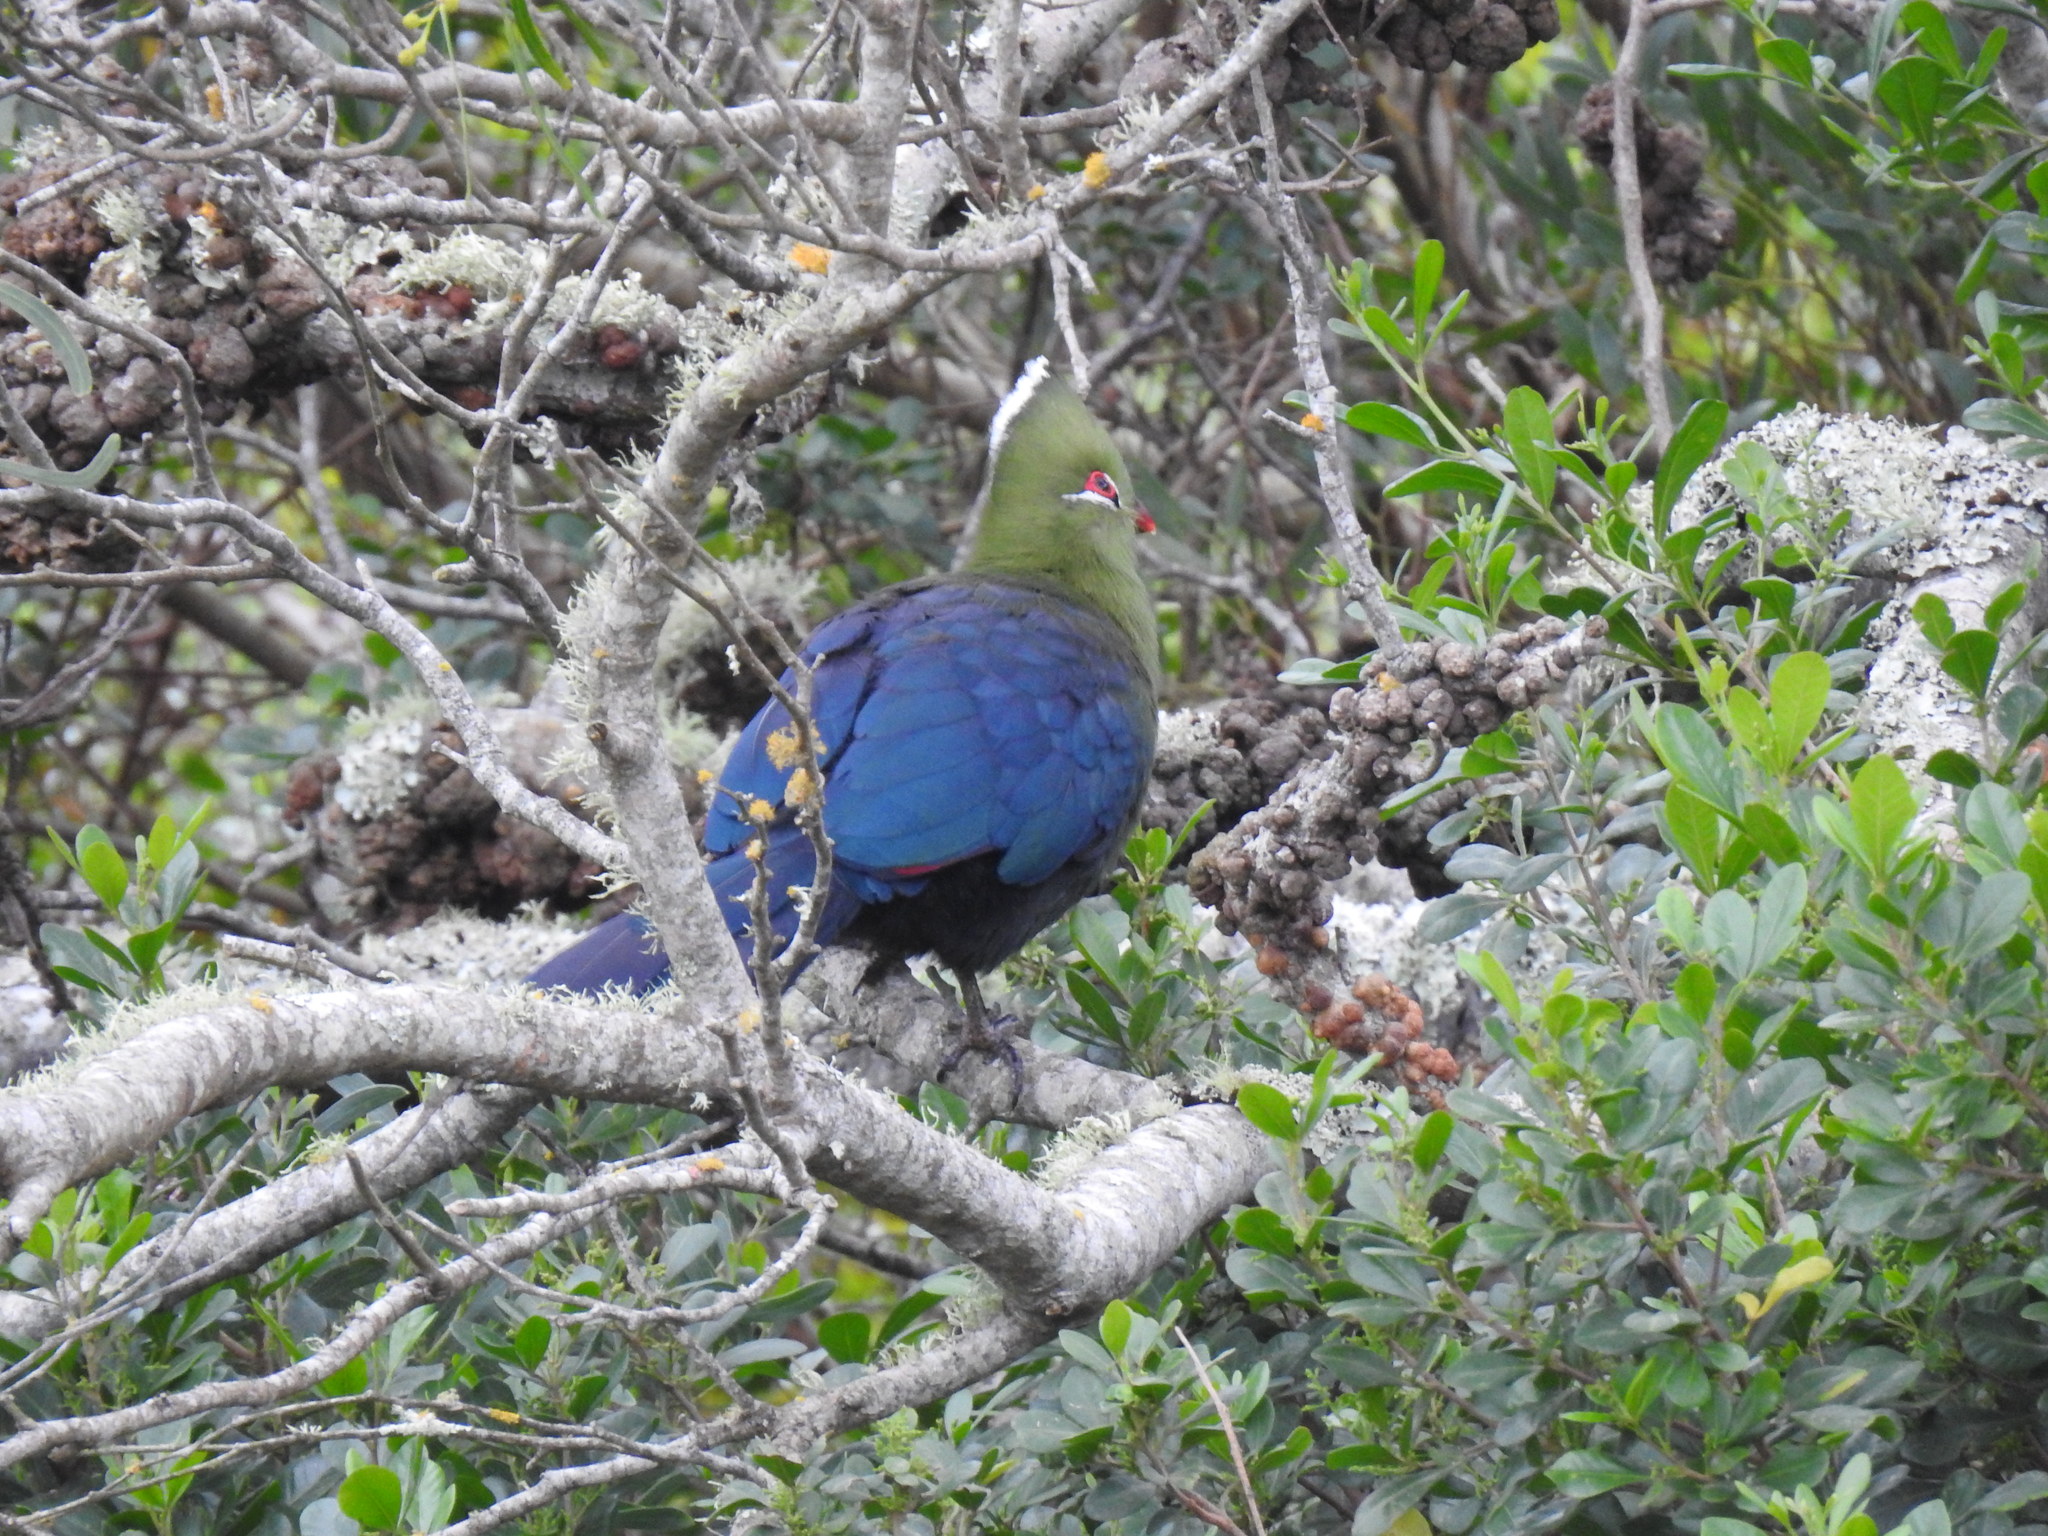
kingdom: Animalia
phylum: Chordata
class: Aves
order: Musophagiformes
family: Musophagidae
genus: Tauraco
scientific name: Tauraco corythaix
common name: Knysna turaco
